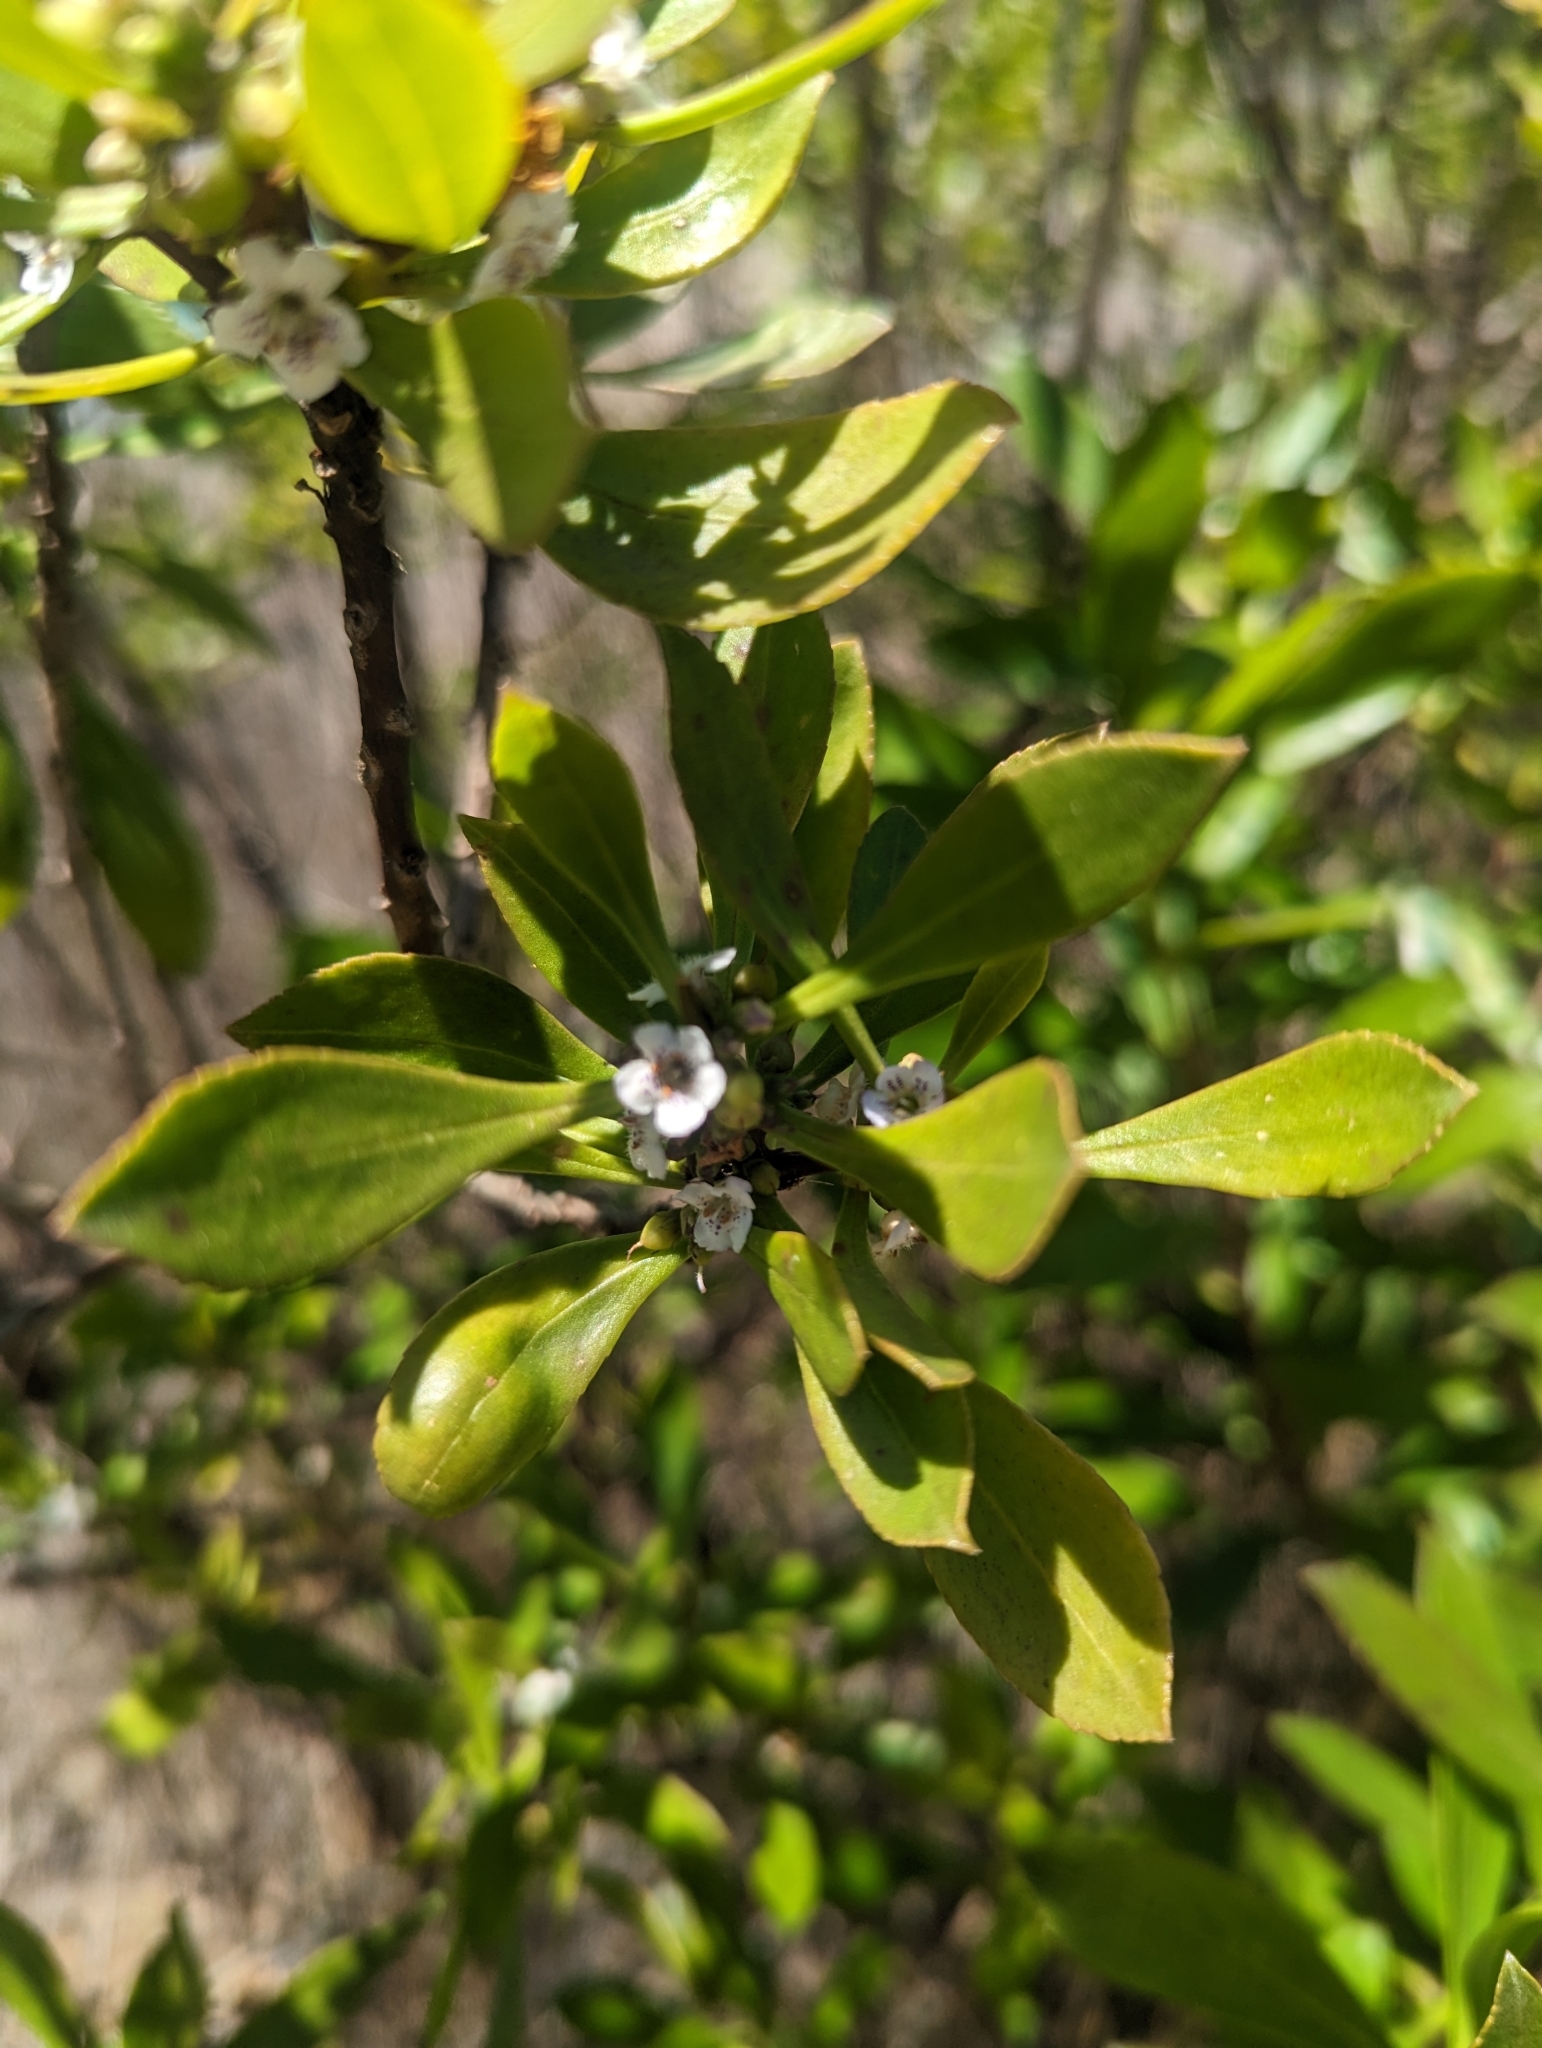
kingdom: Plantae
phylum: Tracheophyta
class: Magnoliopsida
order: Lamiales
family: Scrophulariaceae
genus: Myoporum
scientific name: Myoporum insulare
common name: Common boobialla
